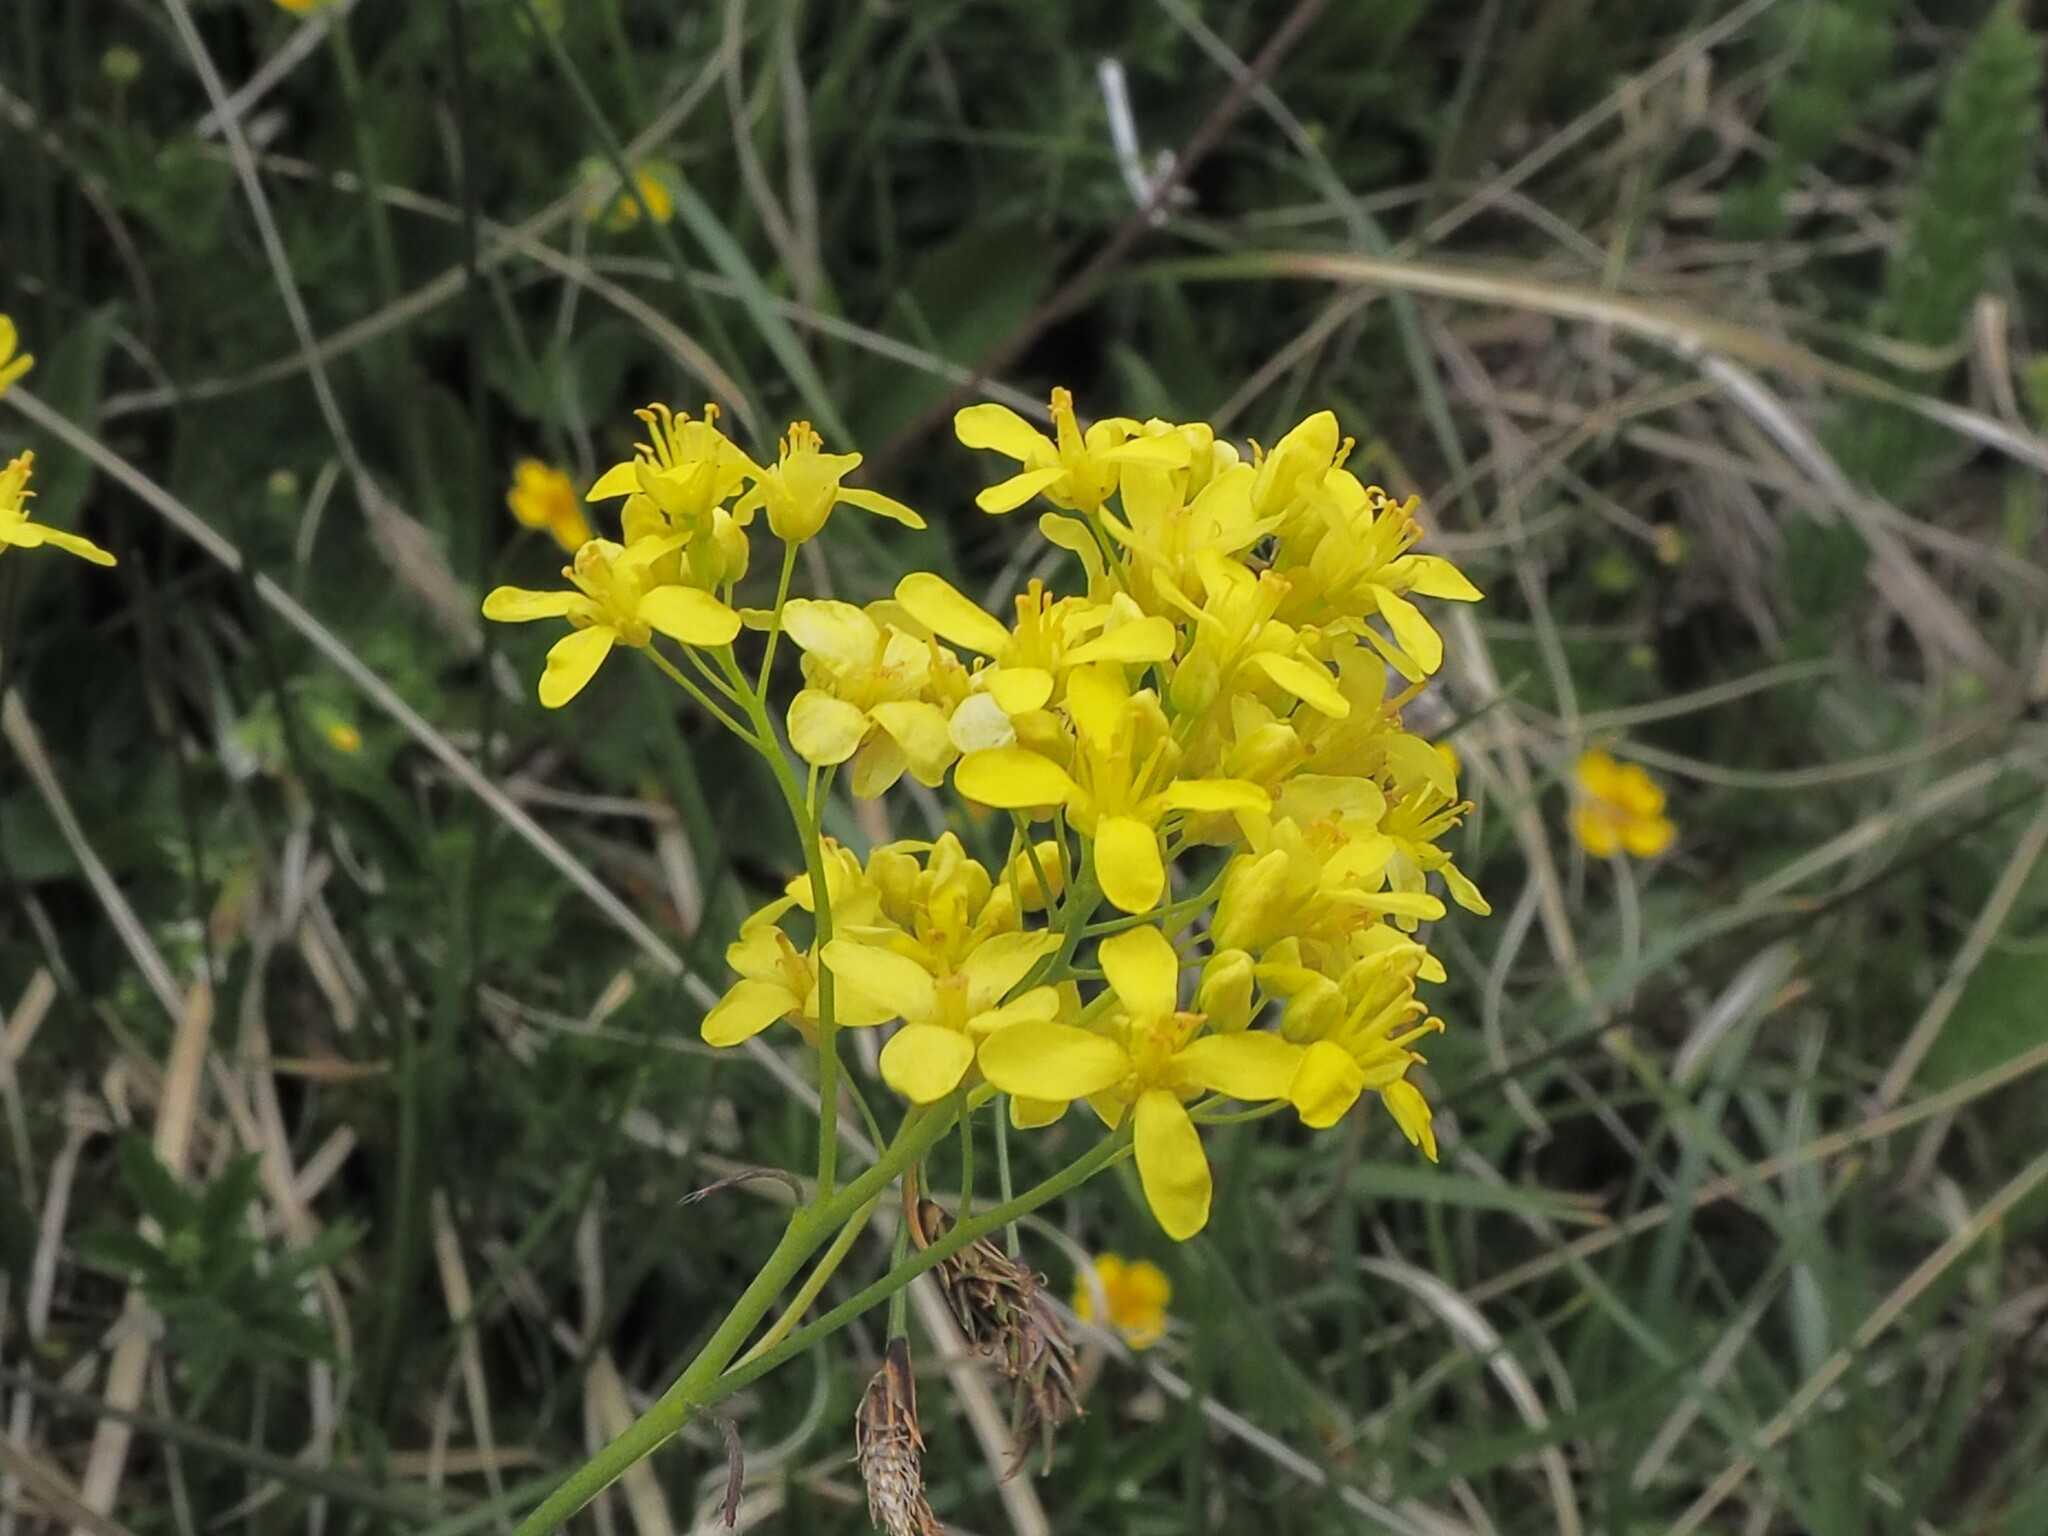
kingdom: Plantae
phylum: Tracheophyta
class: Magnoliopsida
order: Brassicales
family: Brassicaceae
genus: Biscutella
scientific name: Biscutella laevigata
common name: Buckler mustard
